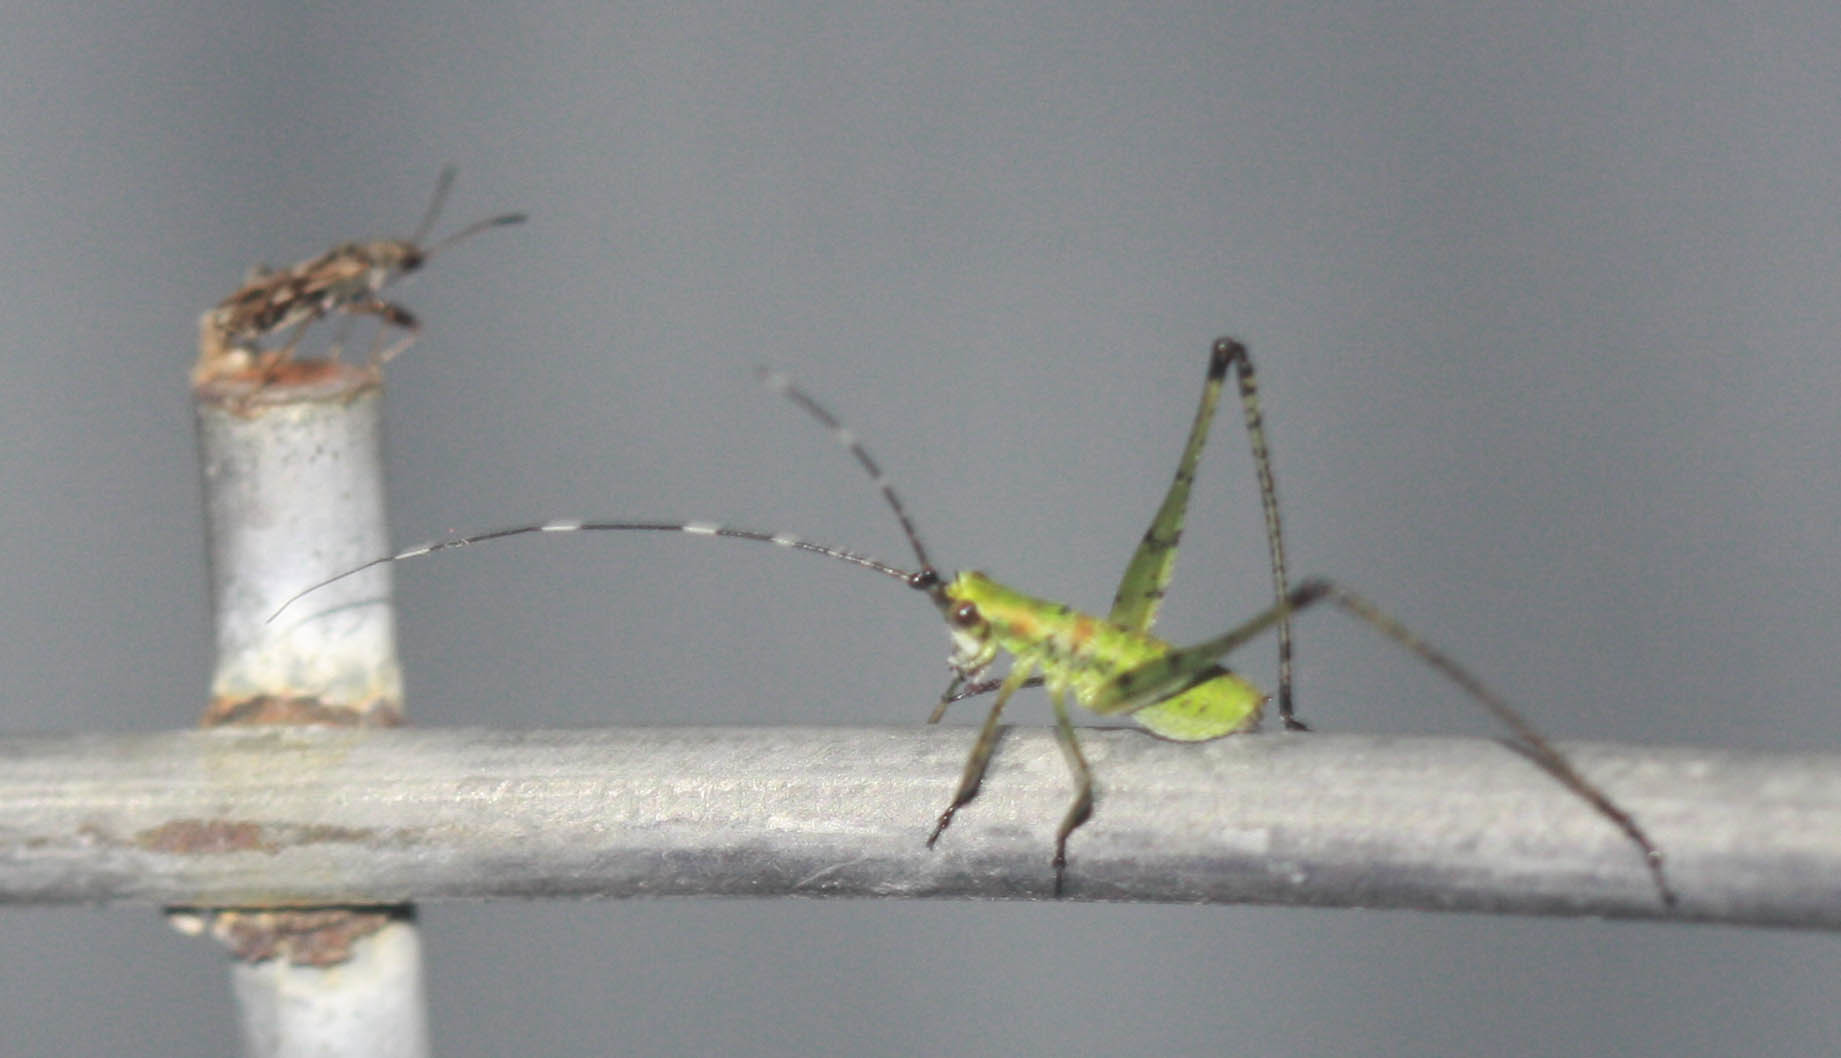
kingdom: Animalia
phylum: Arthropoda
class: Insecta
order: Orthoptera
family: Tettigoniidae
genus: Scudderia
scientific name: Scudderia furcata
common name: Fork-tailed bush katydid
